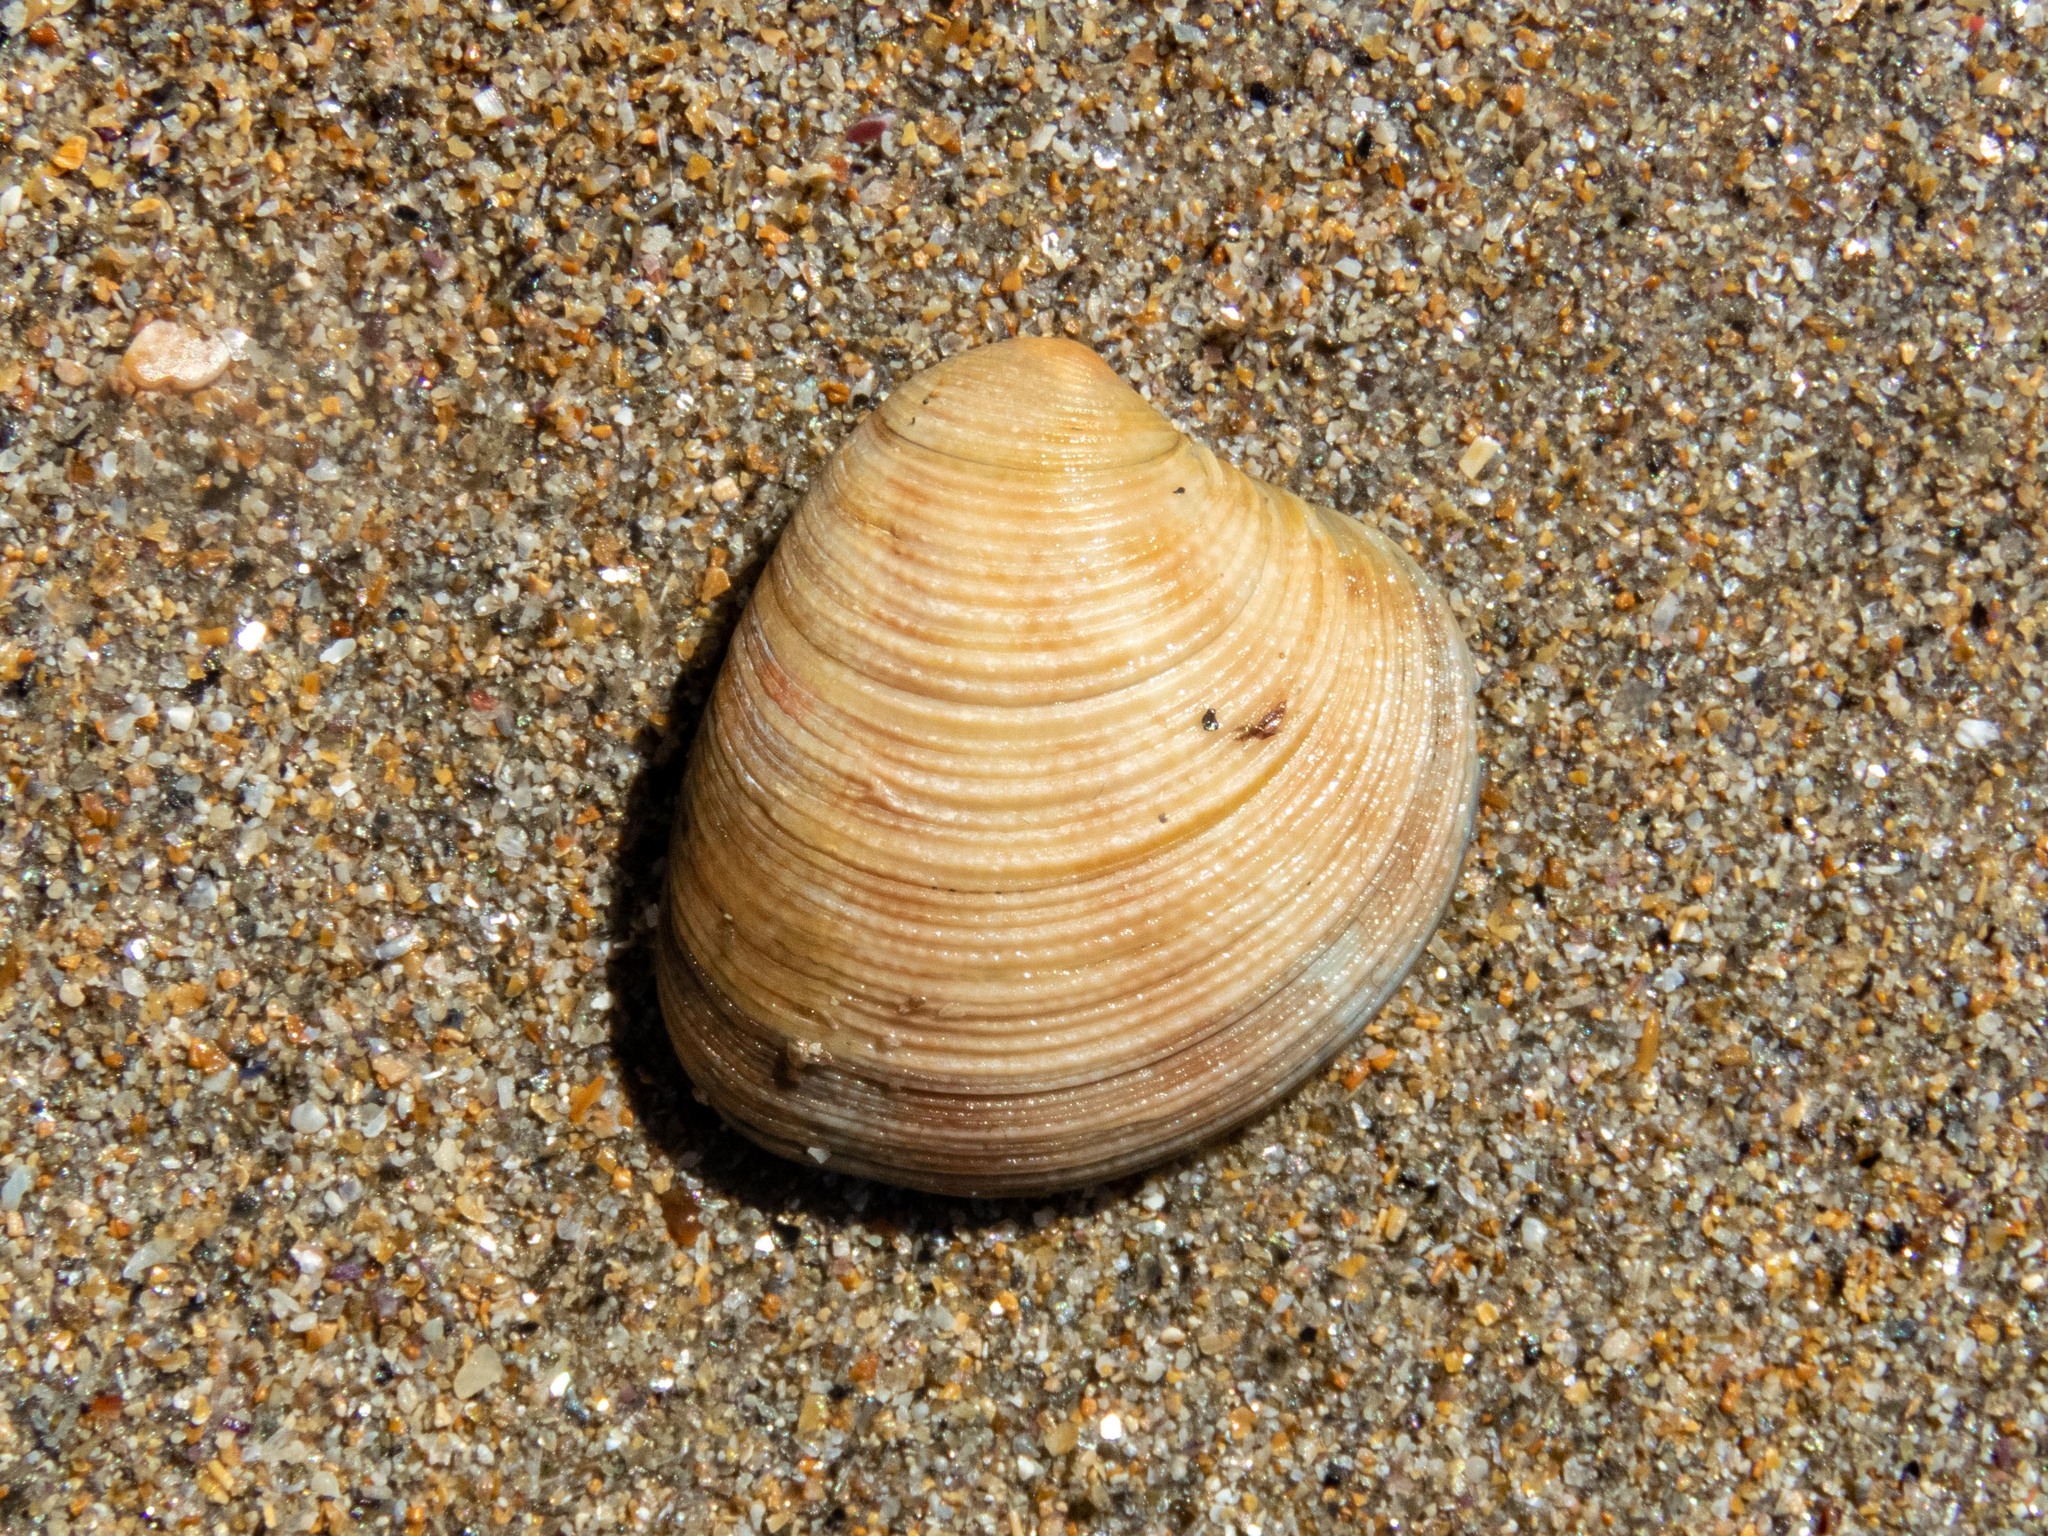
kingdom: Animalia
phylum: Mollusca
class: Bivalvia
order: Venerida
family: Veneridae
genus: Chamelea
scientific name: Chamelea striatula
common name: Striped venus
